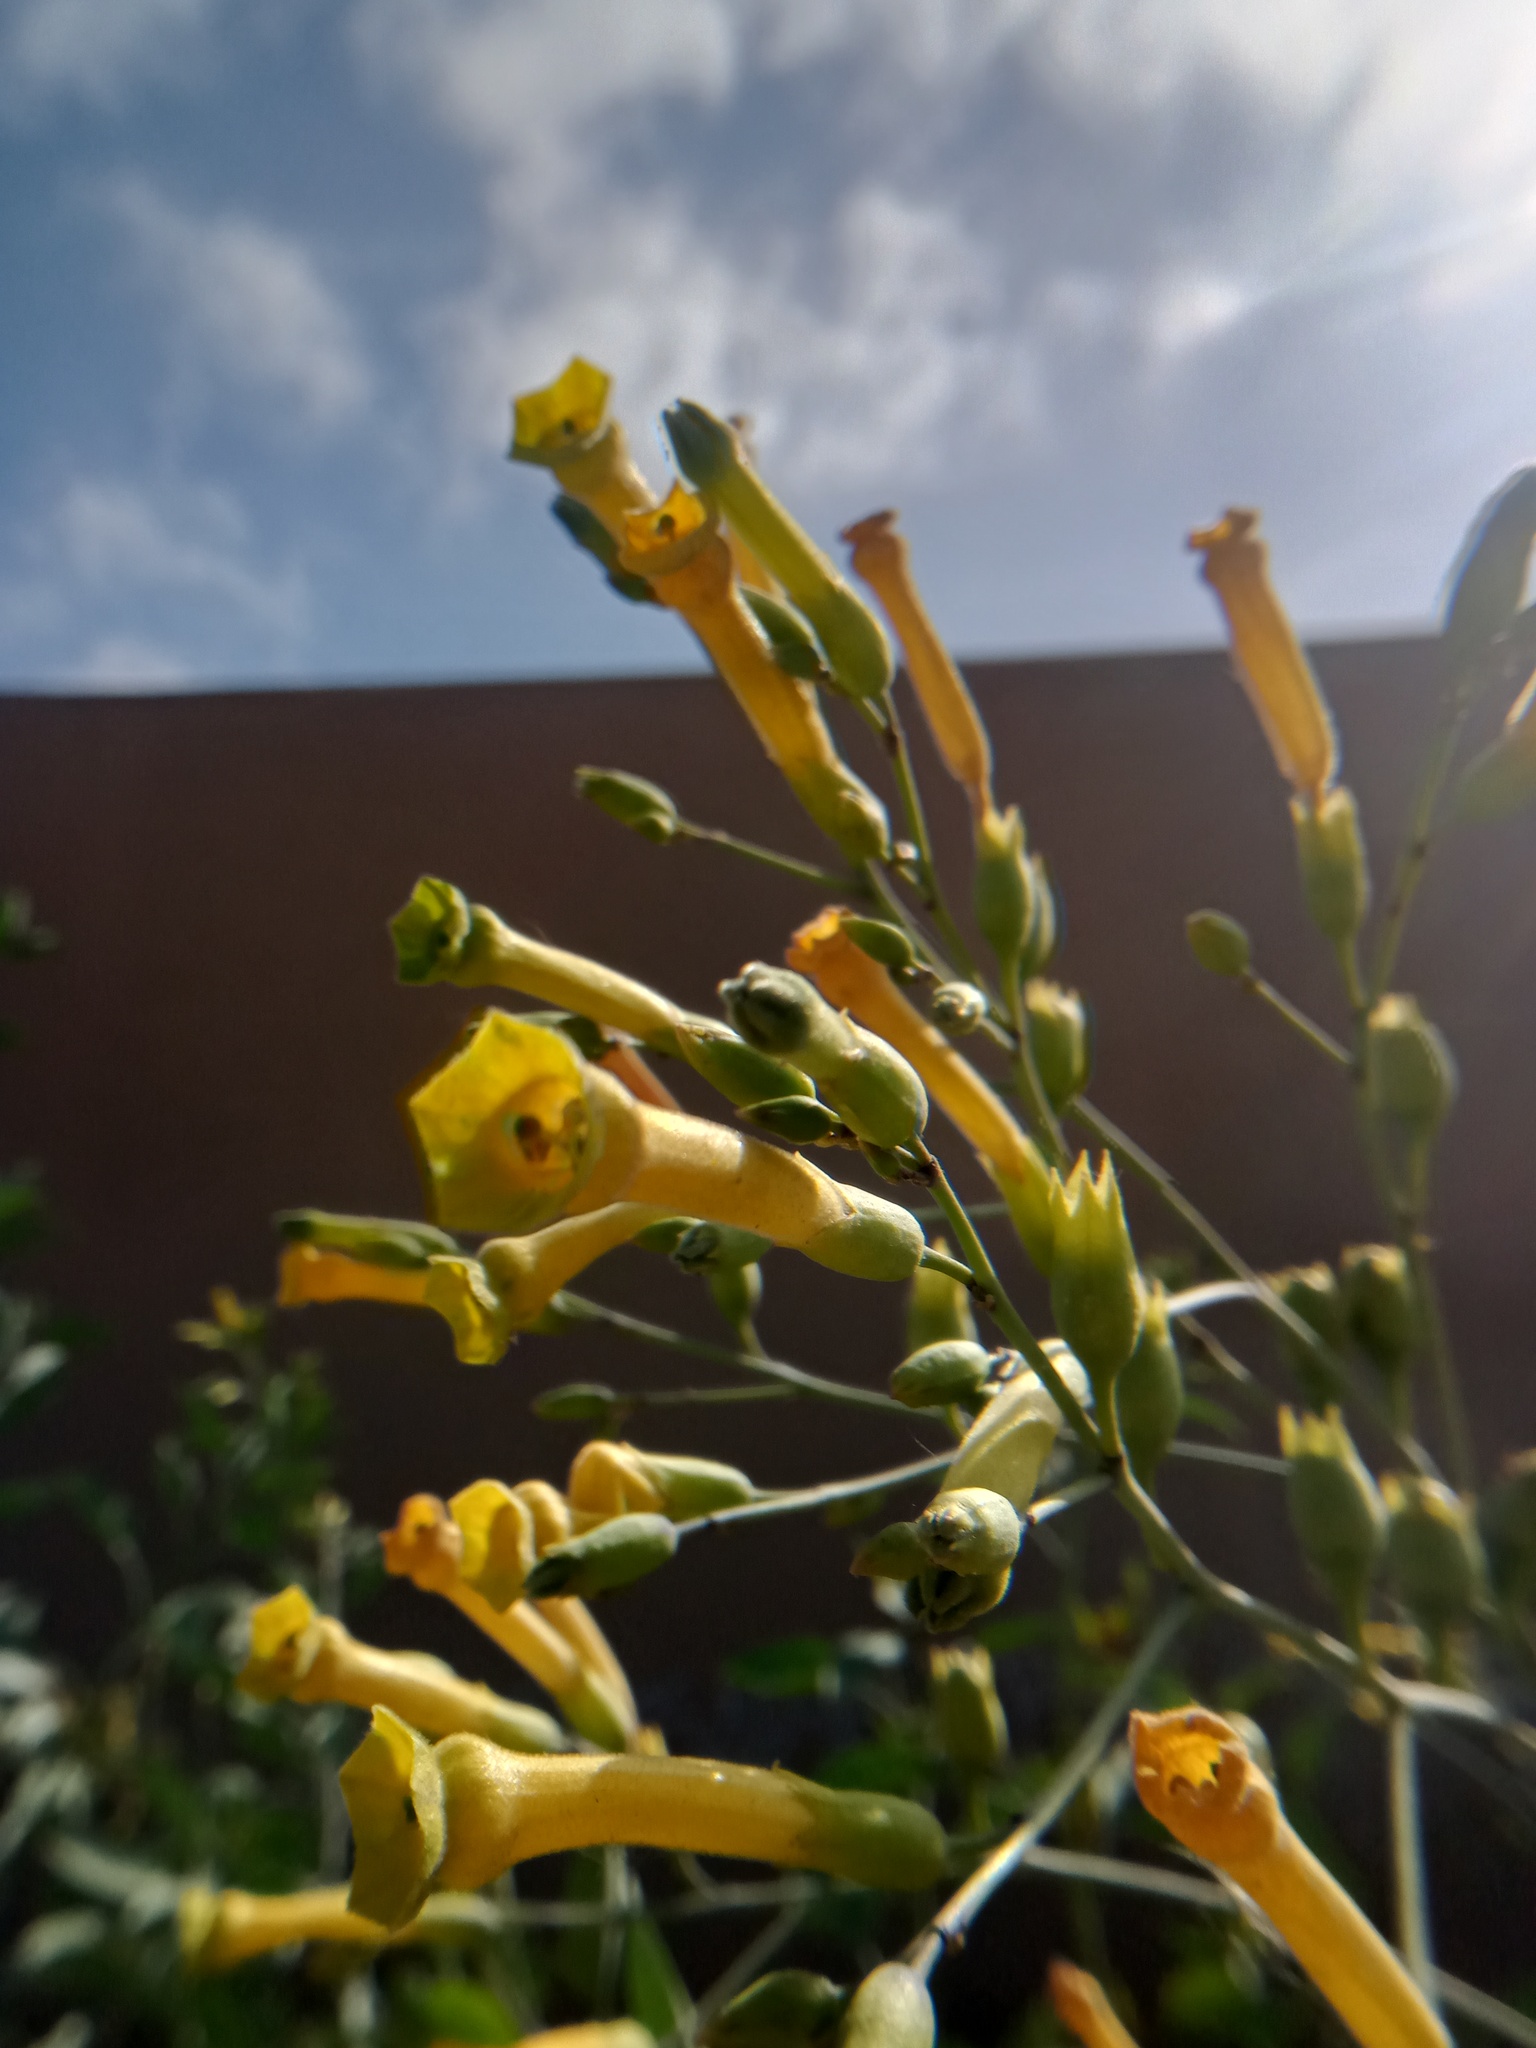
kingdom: Plantae
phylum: Tracheophyta
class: Magnoliopsida
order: Solanales
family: Solanaceae
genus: Nicotiana
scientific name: Nicotiana glauca
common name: Tree tobacco
